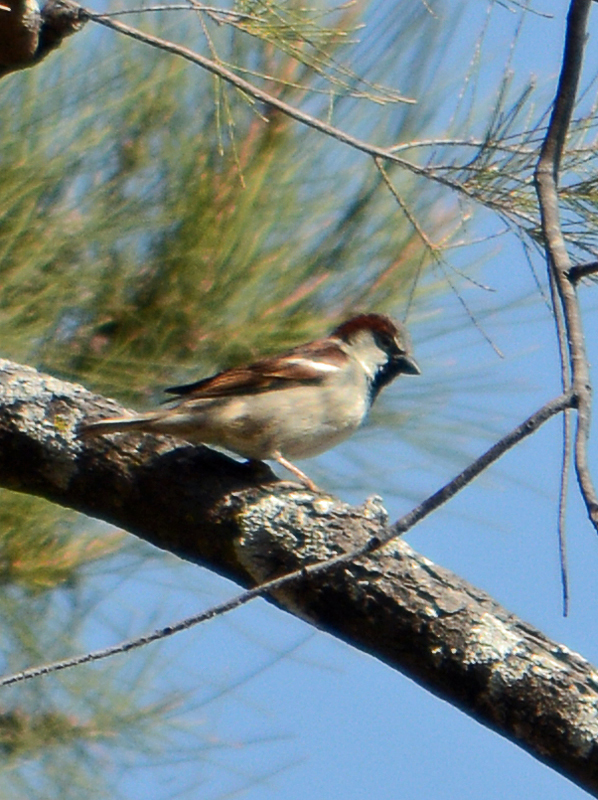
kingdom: Animalia
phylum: Chordata
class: Aves
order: Passeriformes
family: Passeridae
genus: Passer
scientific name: Passer domesticus
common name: House sparrow
